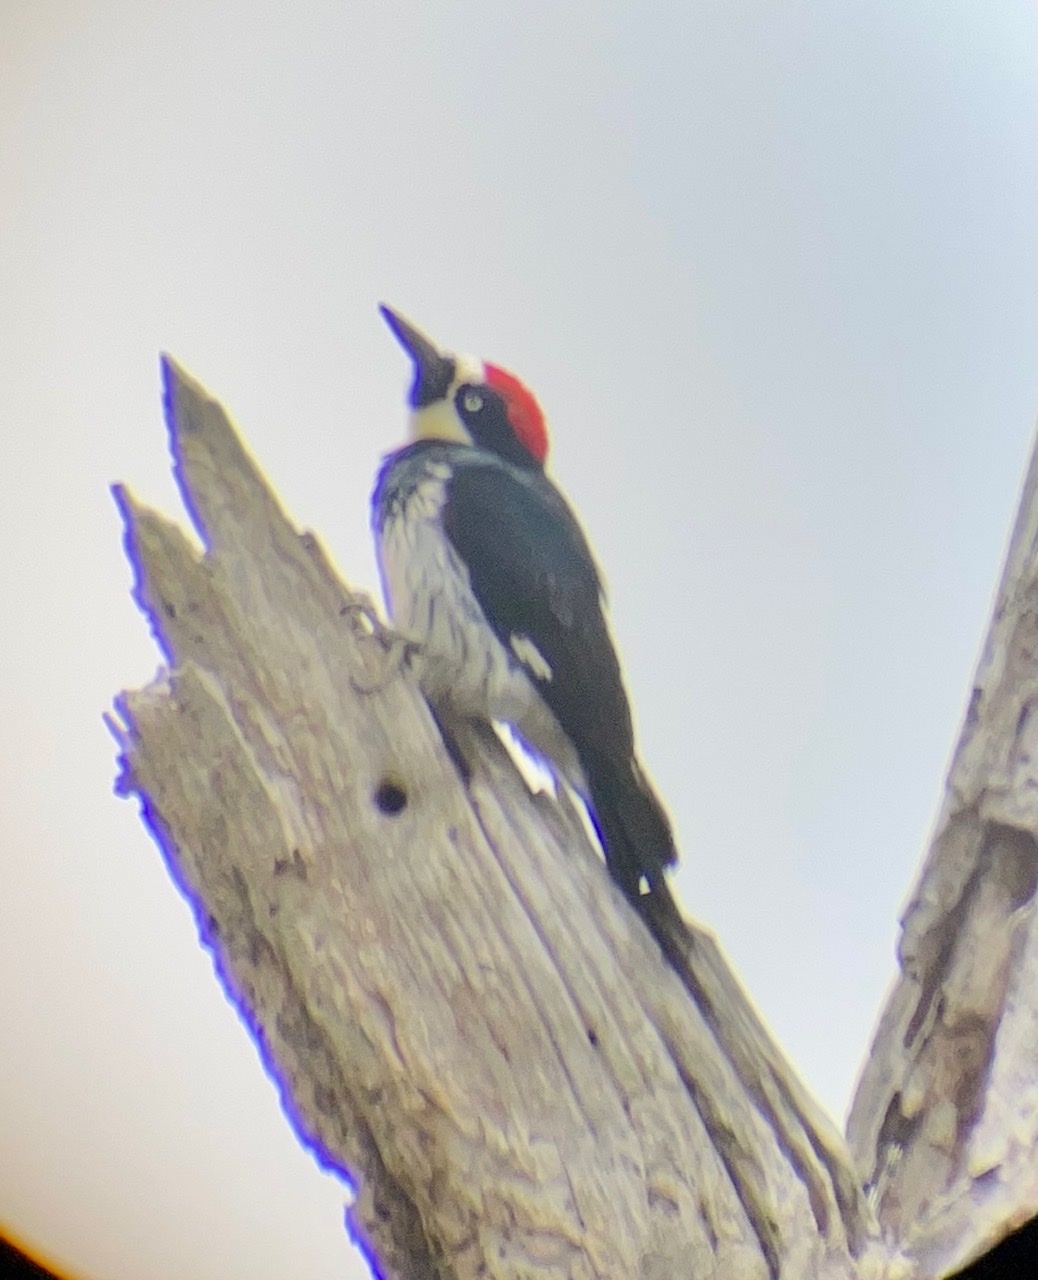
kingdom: Animalia
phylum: Chordata
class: Aves
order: Piciformes
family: Picidae
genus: Melanerpes
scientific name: Melanerpes formicivorus
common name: Acorn woodpecker
